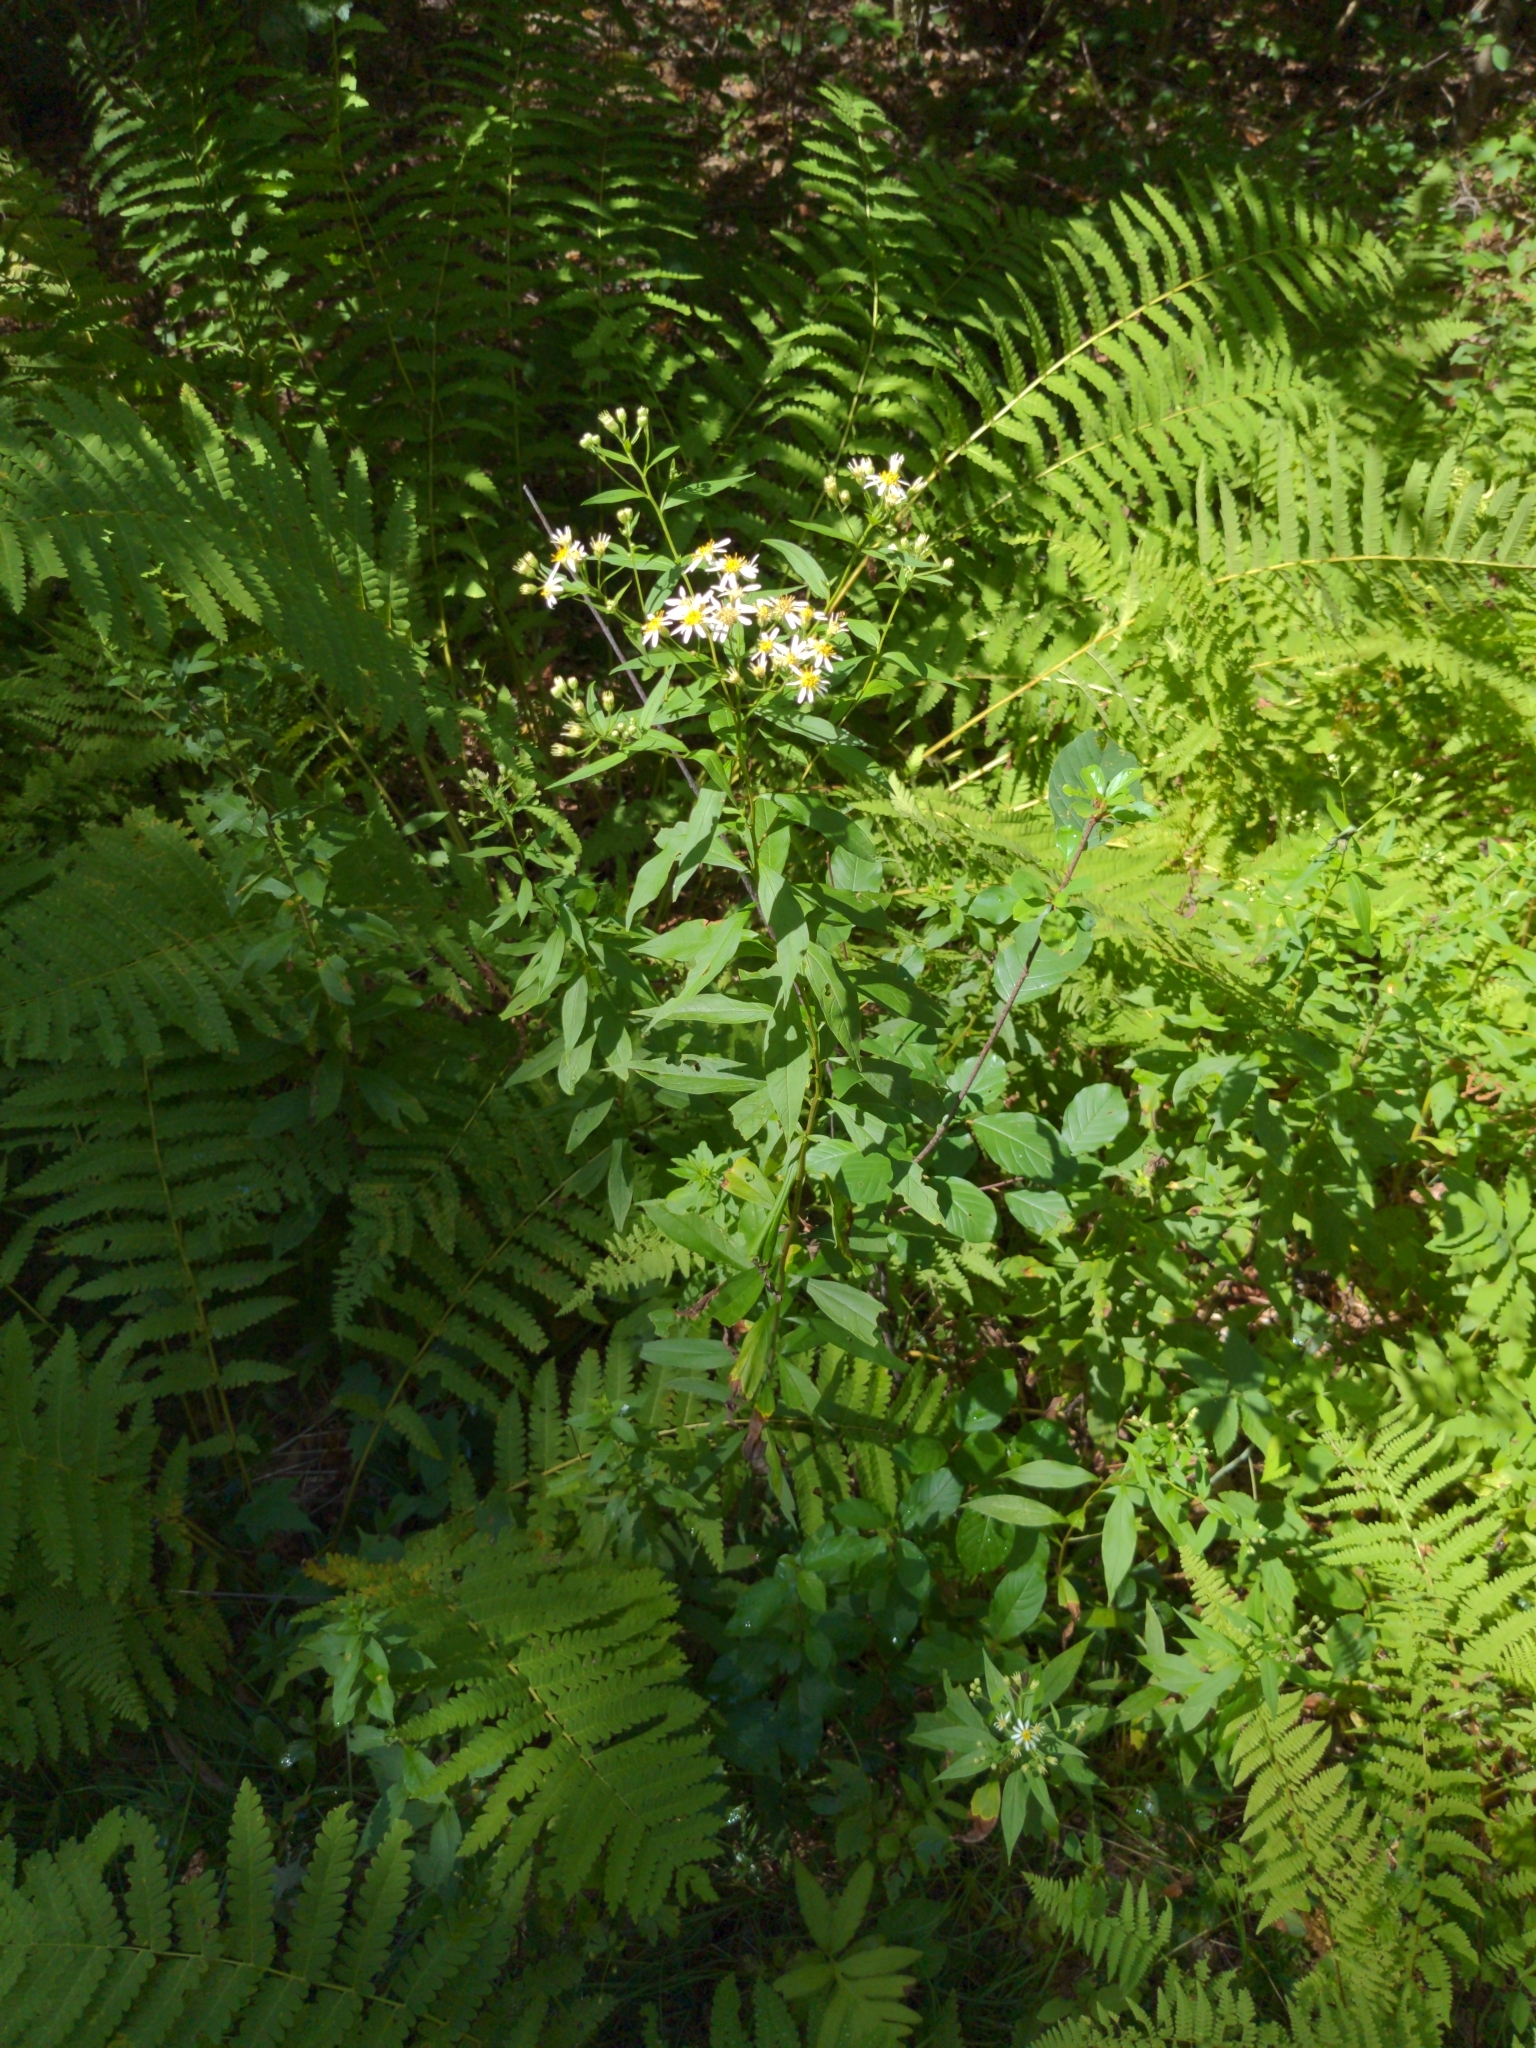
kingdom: Plantae
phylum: Tracheophyta
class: Magnoliopsida
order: Asterales
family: Asteraceae
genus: Doellingeria
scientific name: Doellingeria umbellata
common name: Flat-top white aster
